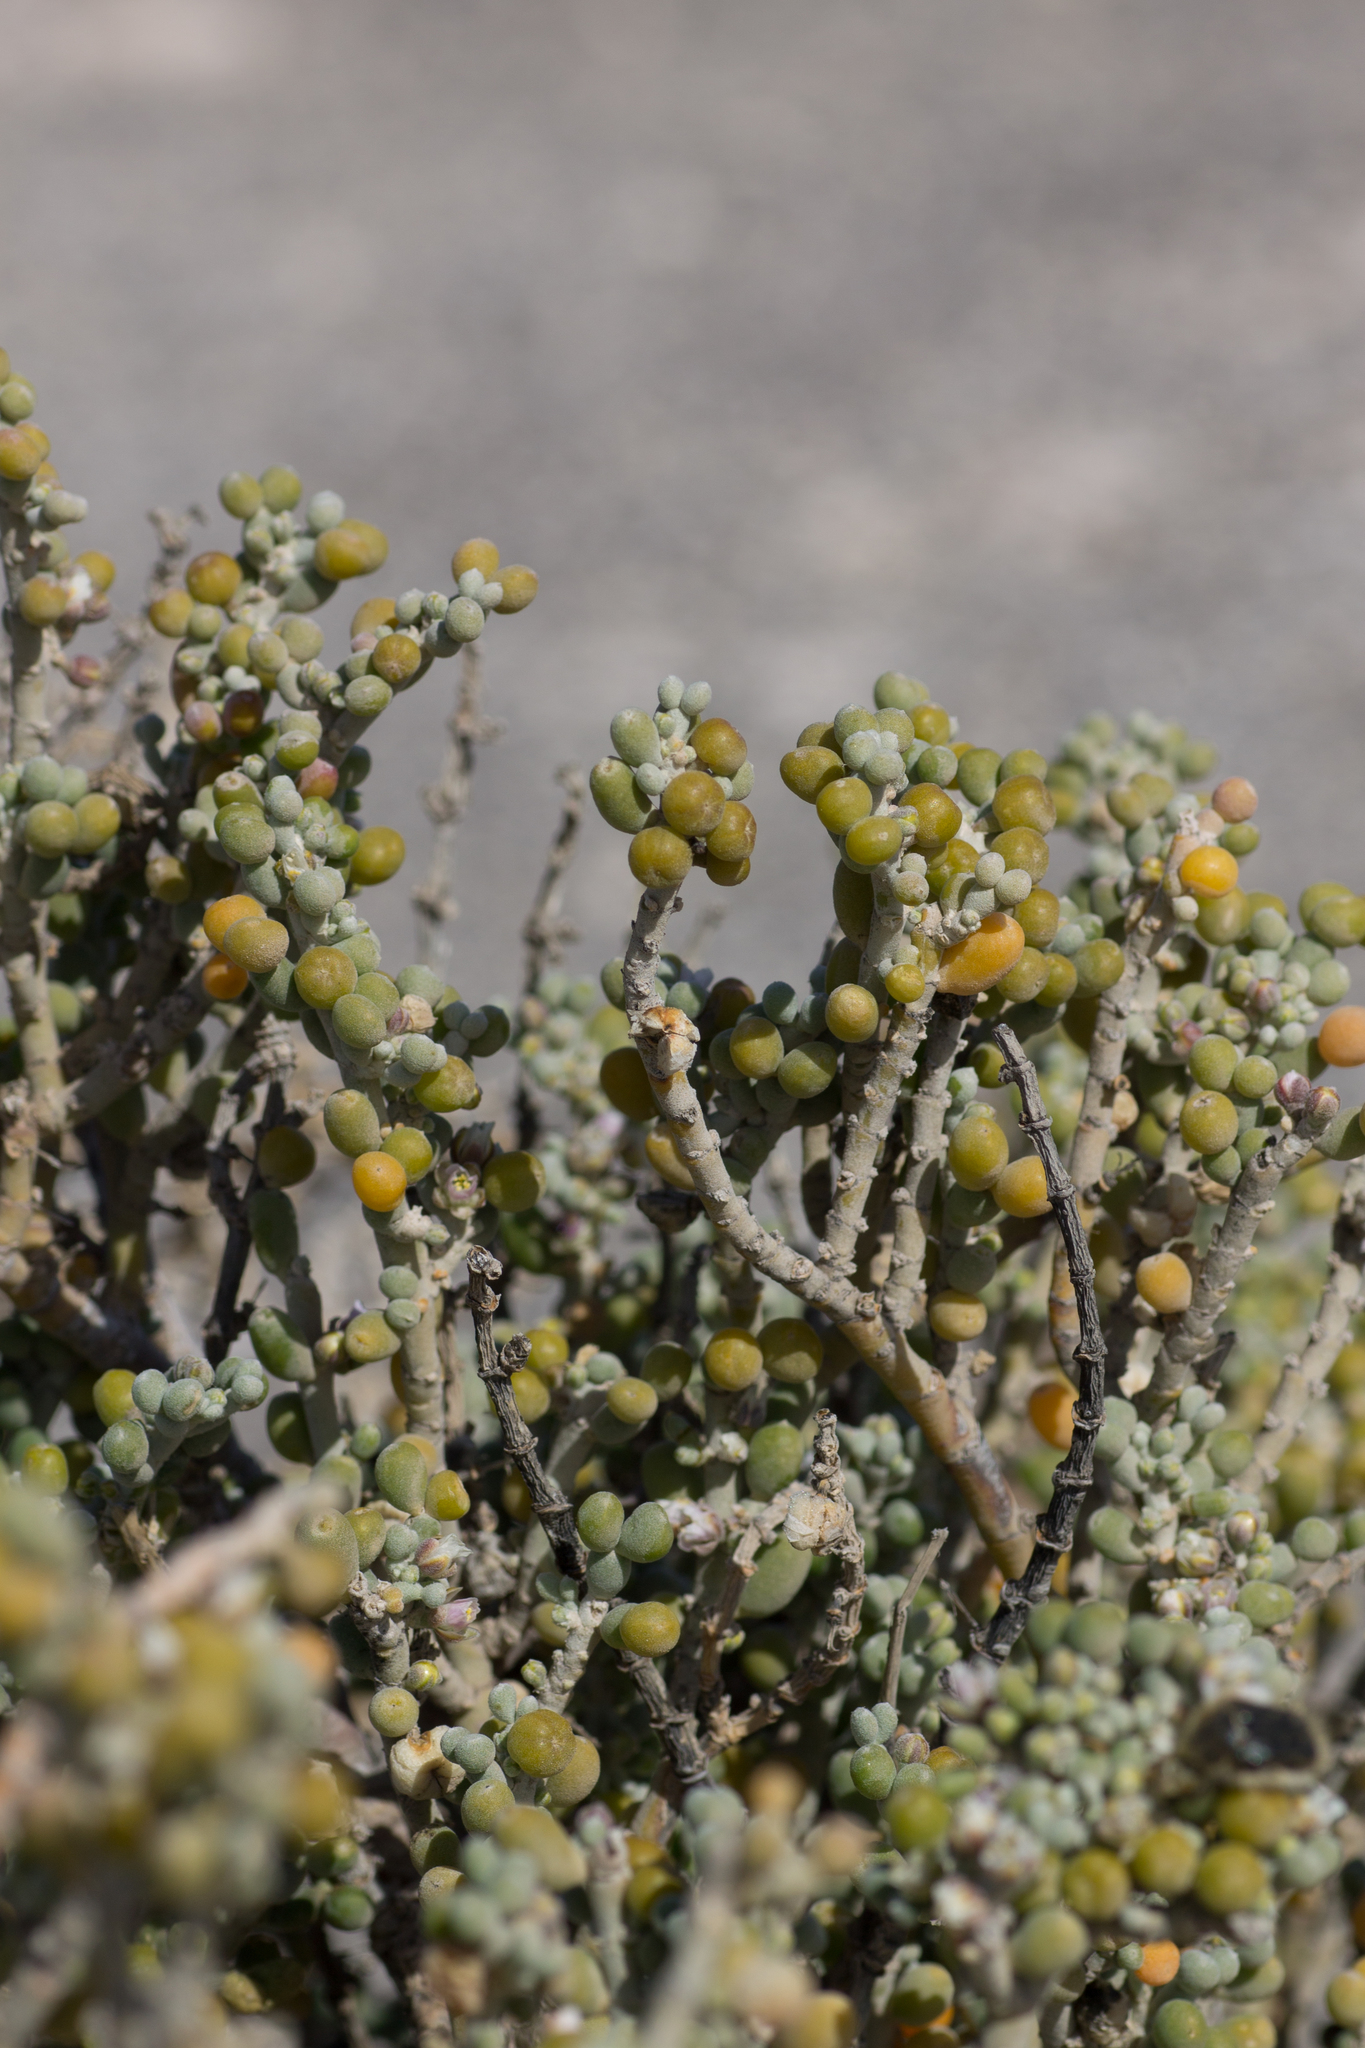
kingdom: Plantae
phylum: Tracheophyta
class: Magnoliopsida
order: Zygophyllales
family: Zygophyllaceae
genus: Tetraena
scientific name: Tetraena fontanesii
